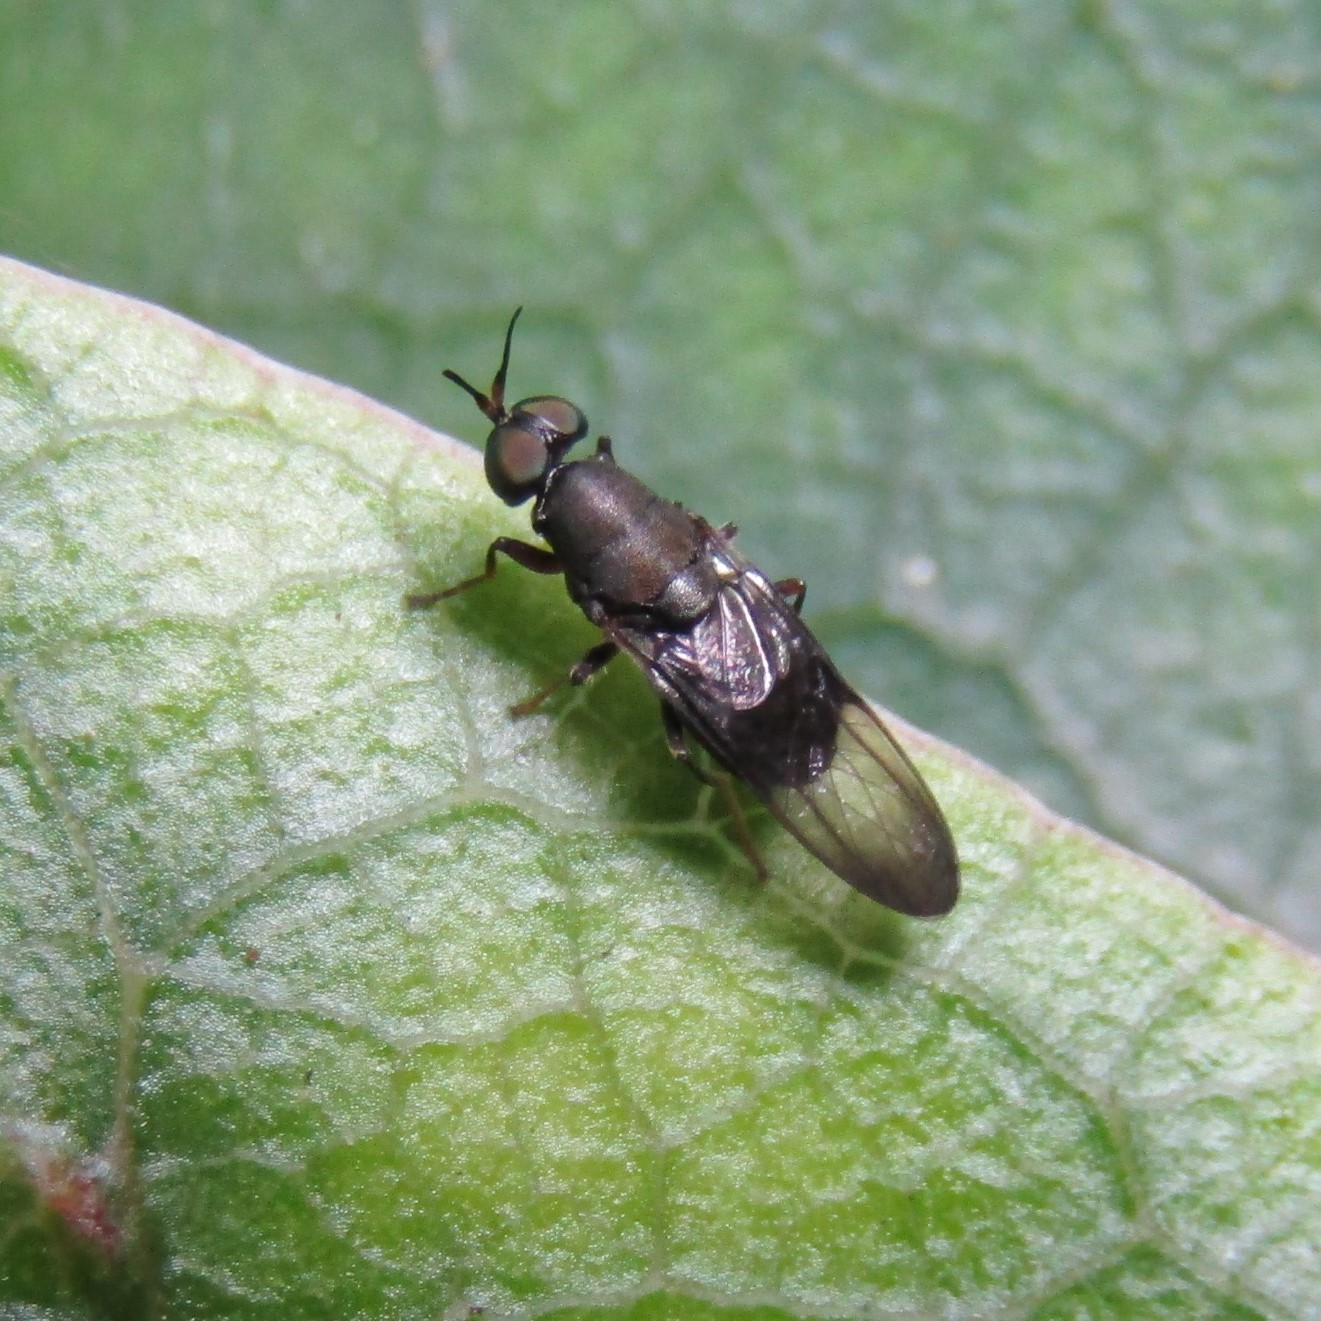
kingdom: Animalia
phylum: Arthropoda
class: Insecta
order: Diptera
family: Stratiomyidae
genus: Dysbiota
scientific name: Dysbiota peregrina
